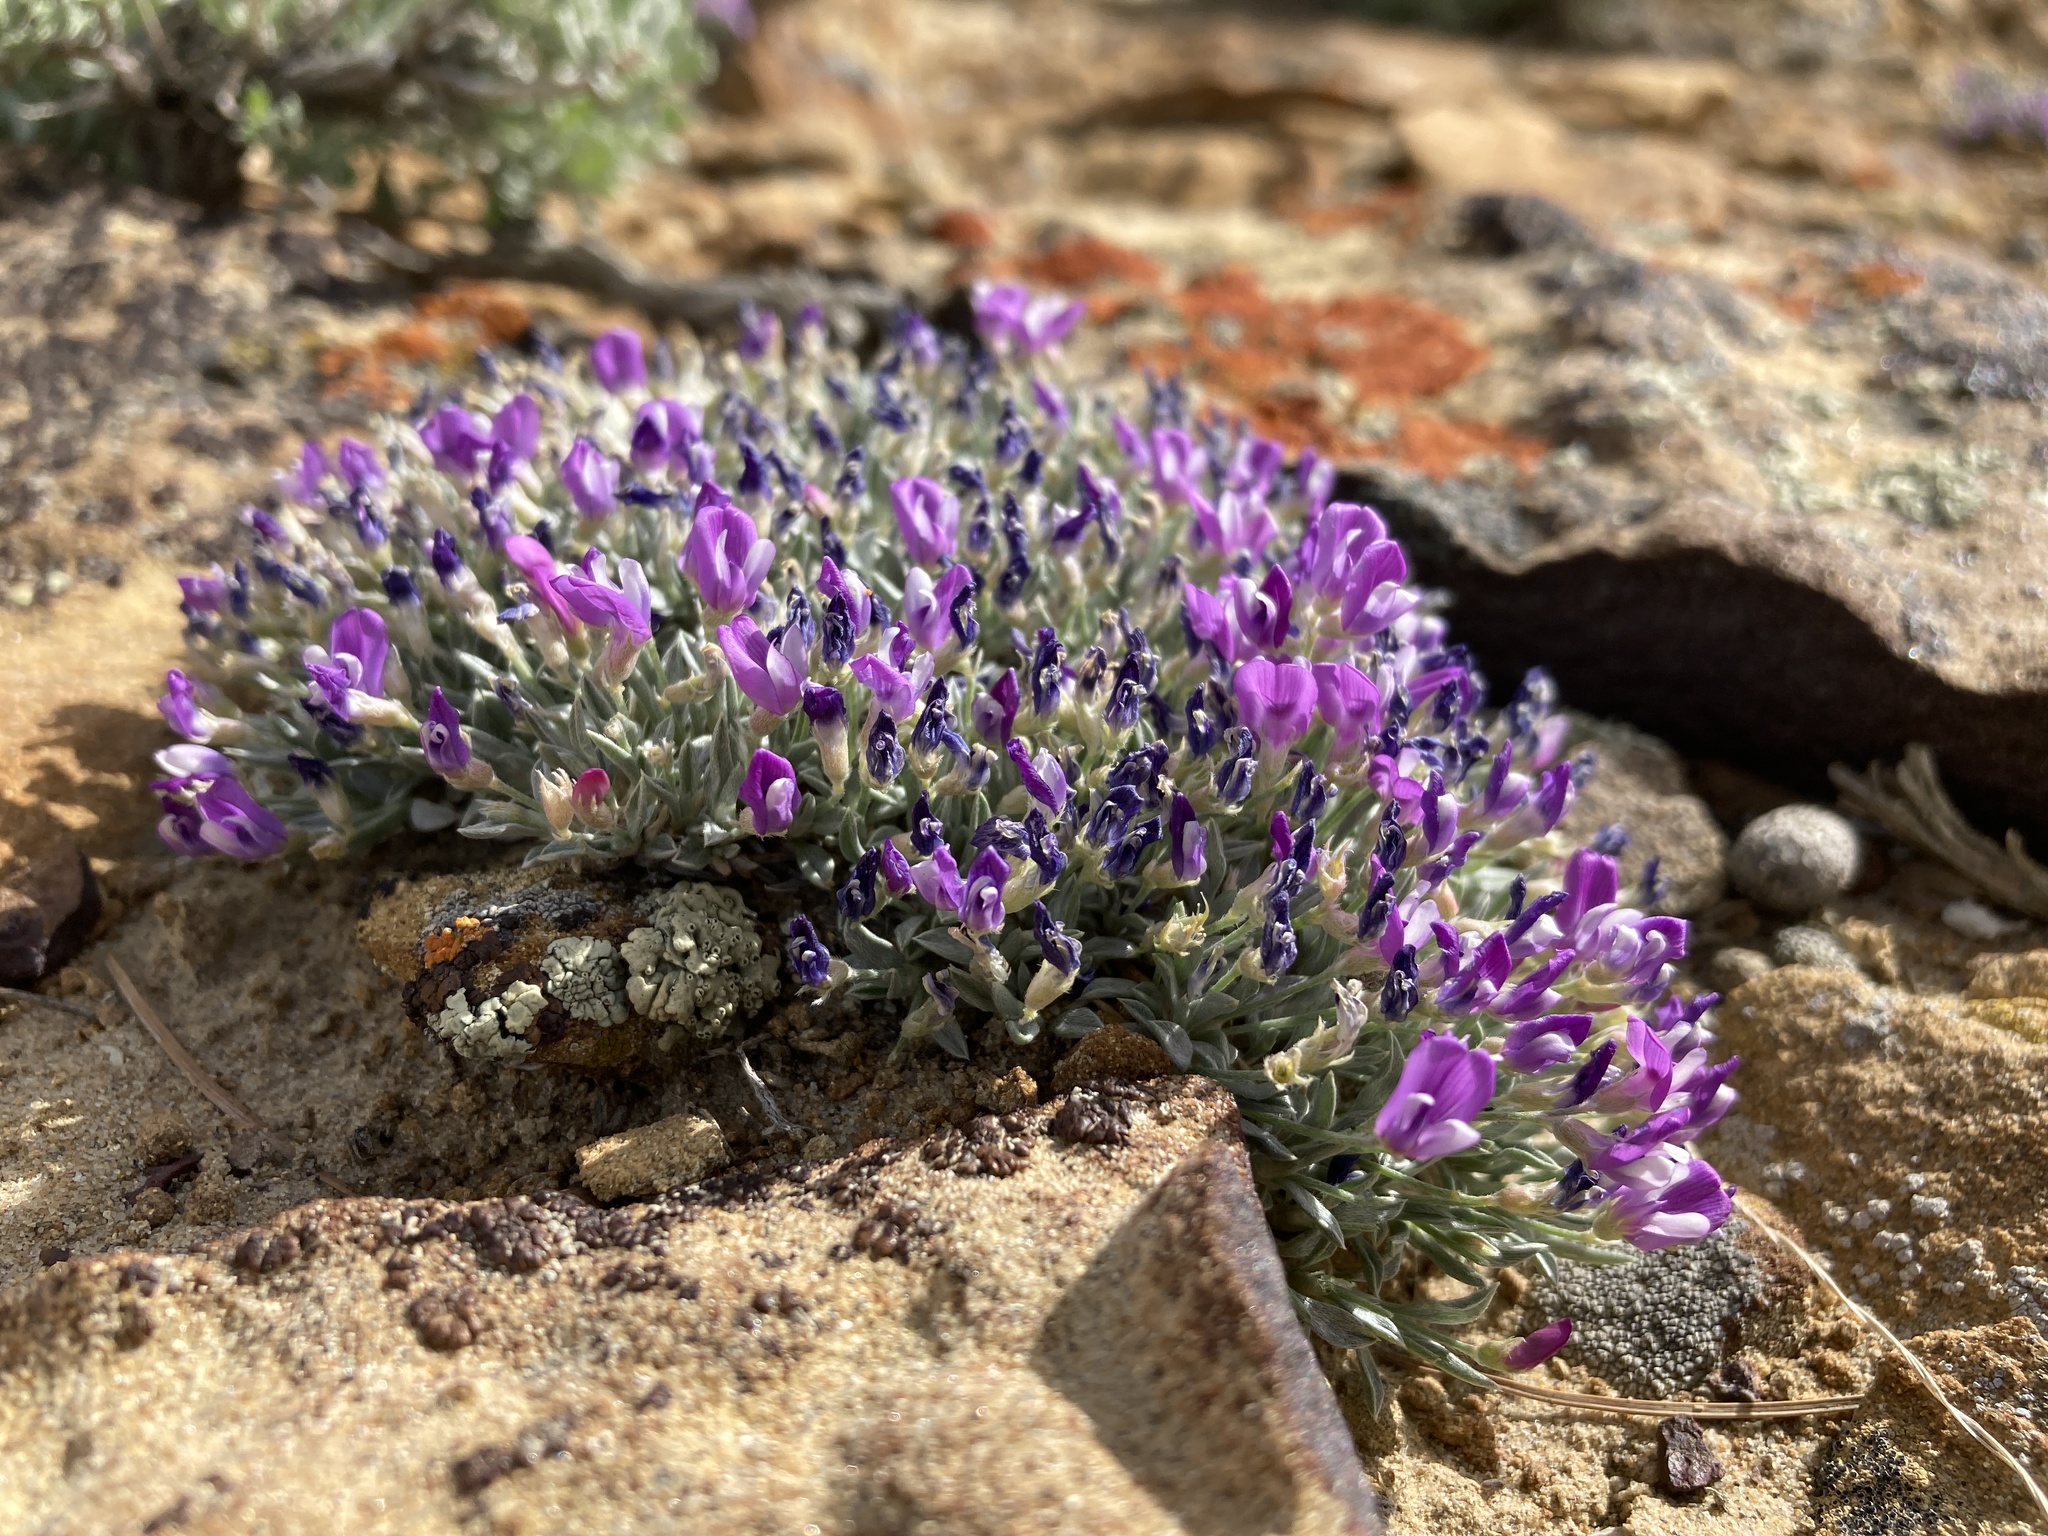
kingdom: Plantae
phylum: Tracheophyta
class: Magnoliopsida
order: Fabales
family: Fabaceae
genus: Astragalus
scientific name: Astragalus spatulatus
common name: Draba milk-vetch
